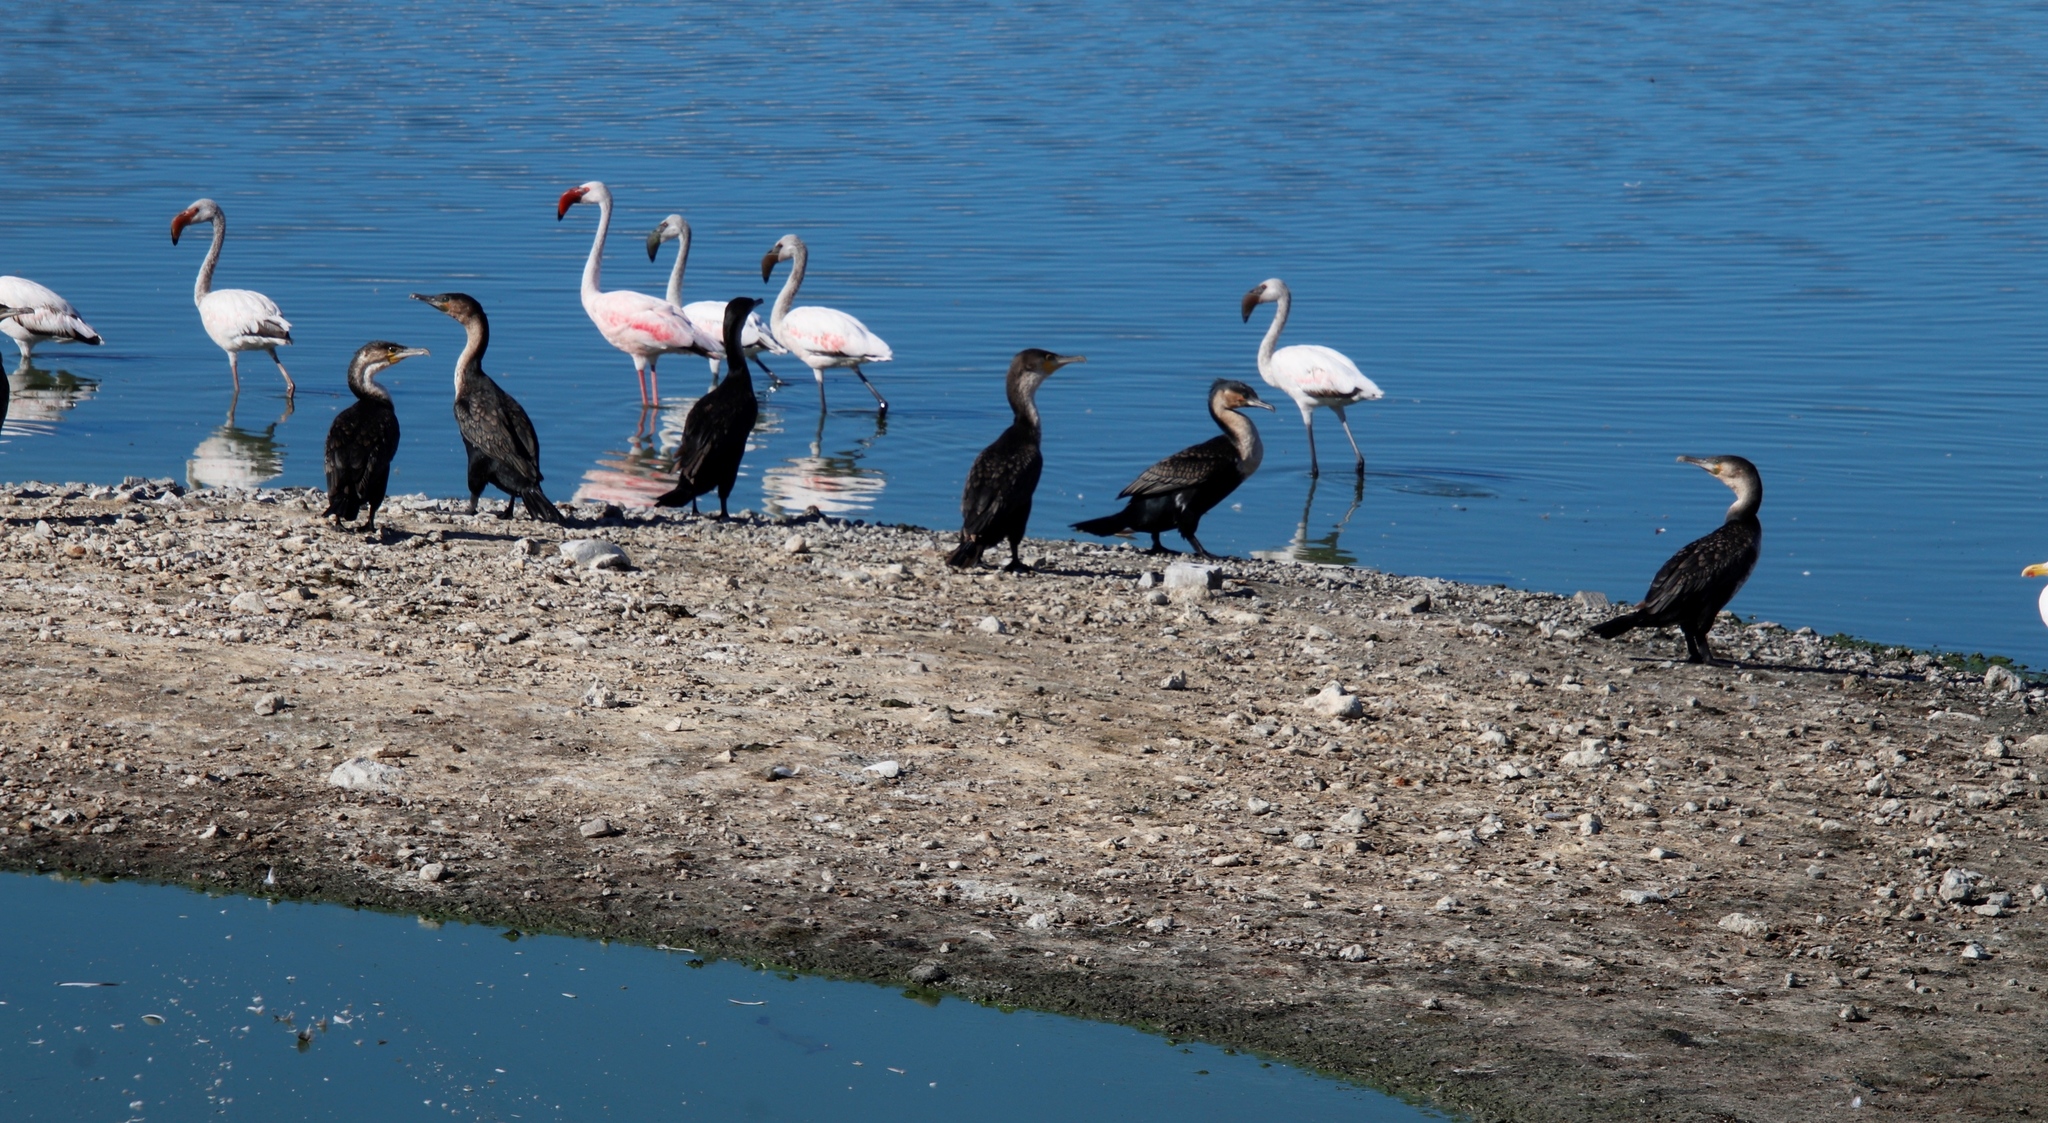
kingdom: Animalia
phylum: Chordata
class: Aves
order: Suliformes
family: Phalacrocoracidae
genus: Phalacrocorax
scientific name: Phalacrocorax carbo
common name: Great cormorant
